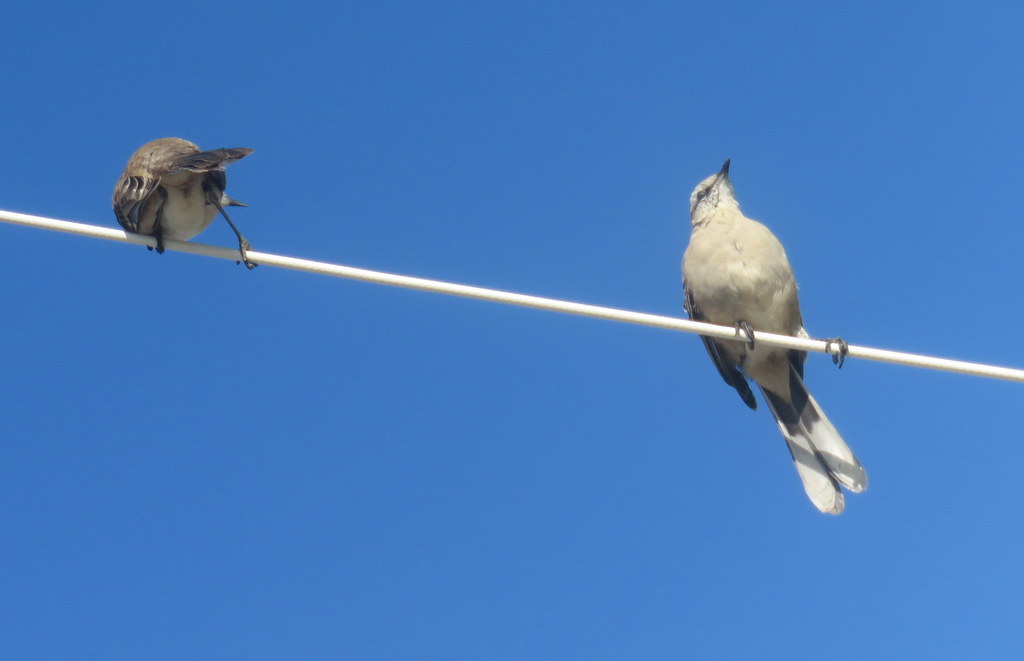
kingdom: Animalia
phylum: Chordata
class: Aves
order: Passeriformes
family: Mimidae
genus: Mimus
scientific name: Mimus saturninus
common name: Chalk-browed mockingbird
